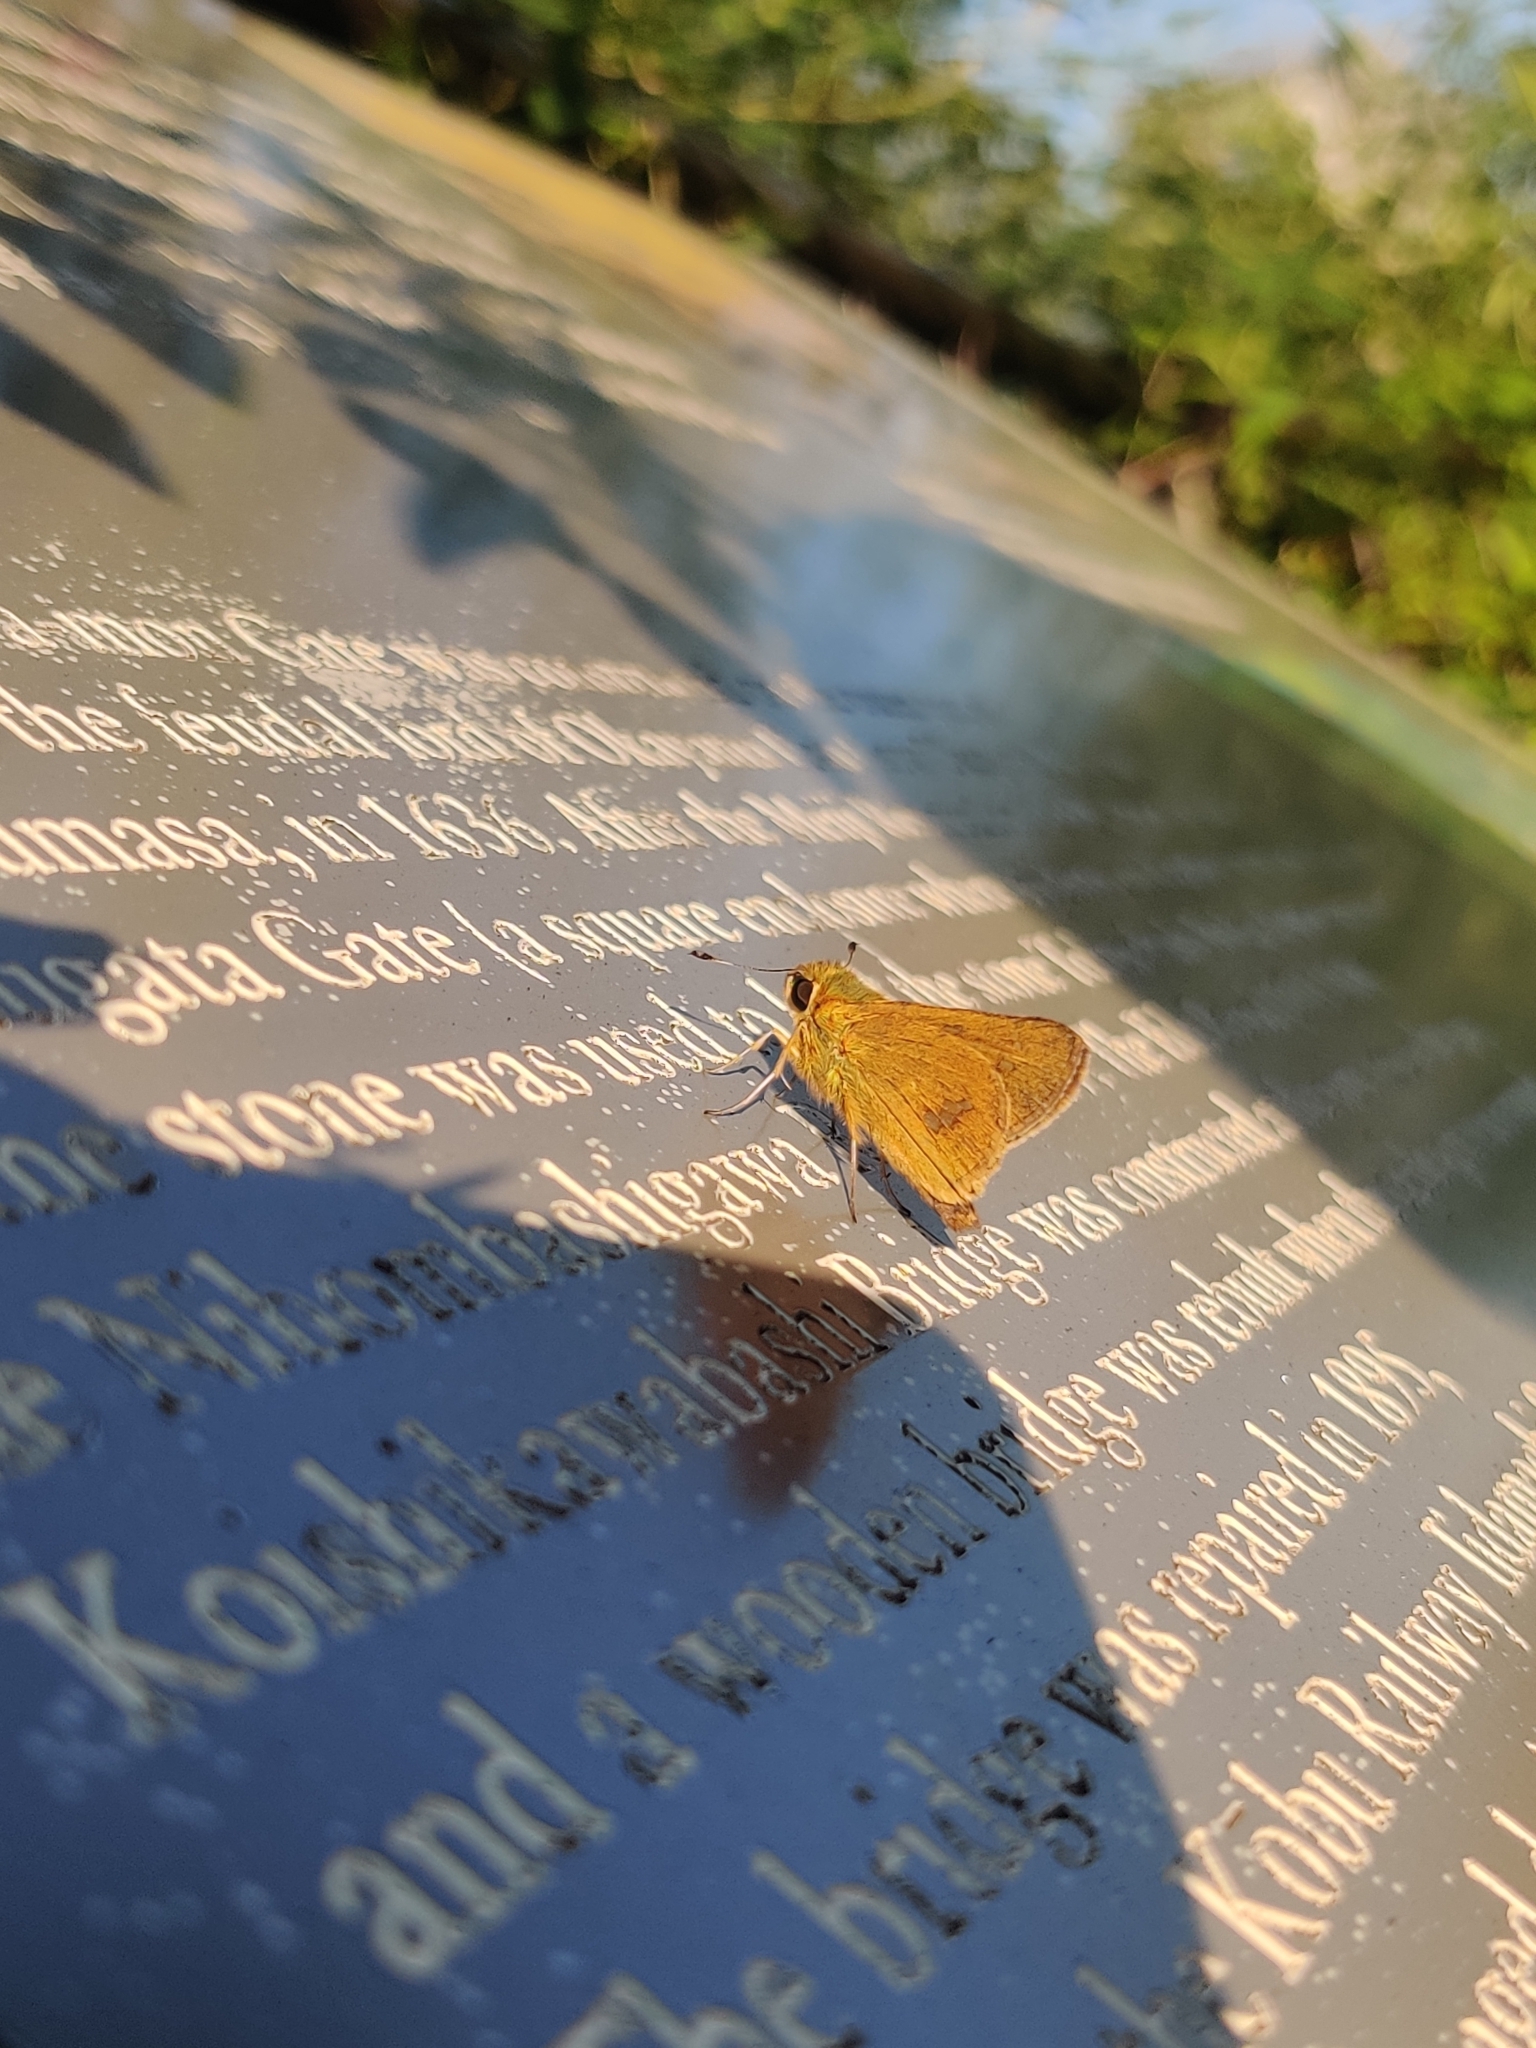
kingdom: Animalia
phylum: Arthropoda
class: Insecta
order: Lepidoptera
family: Hesperiidae
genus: Parnara
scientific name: Parnara guttatus
